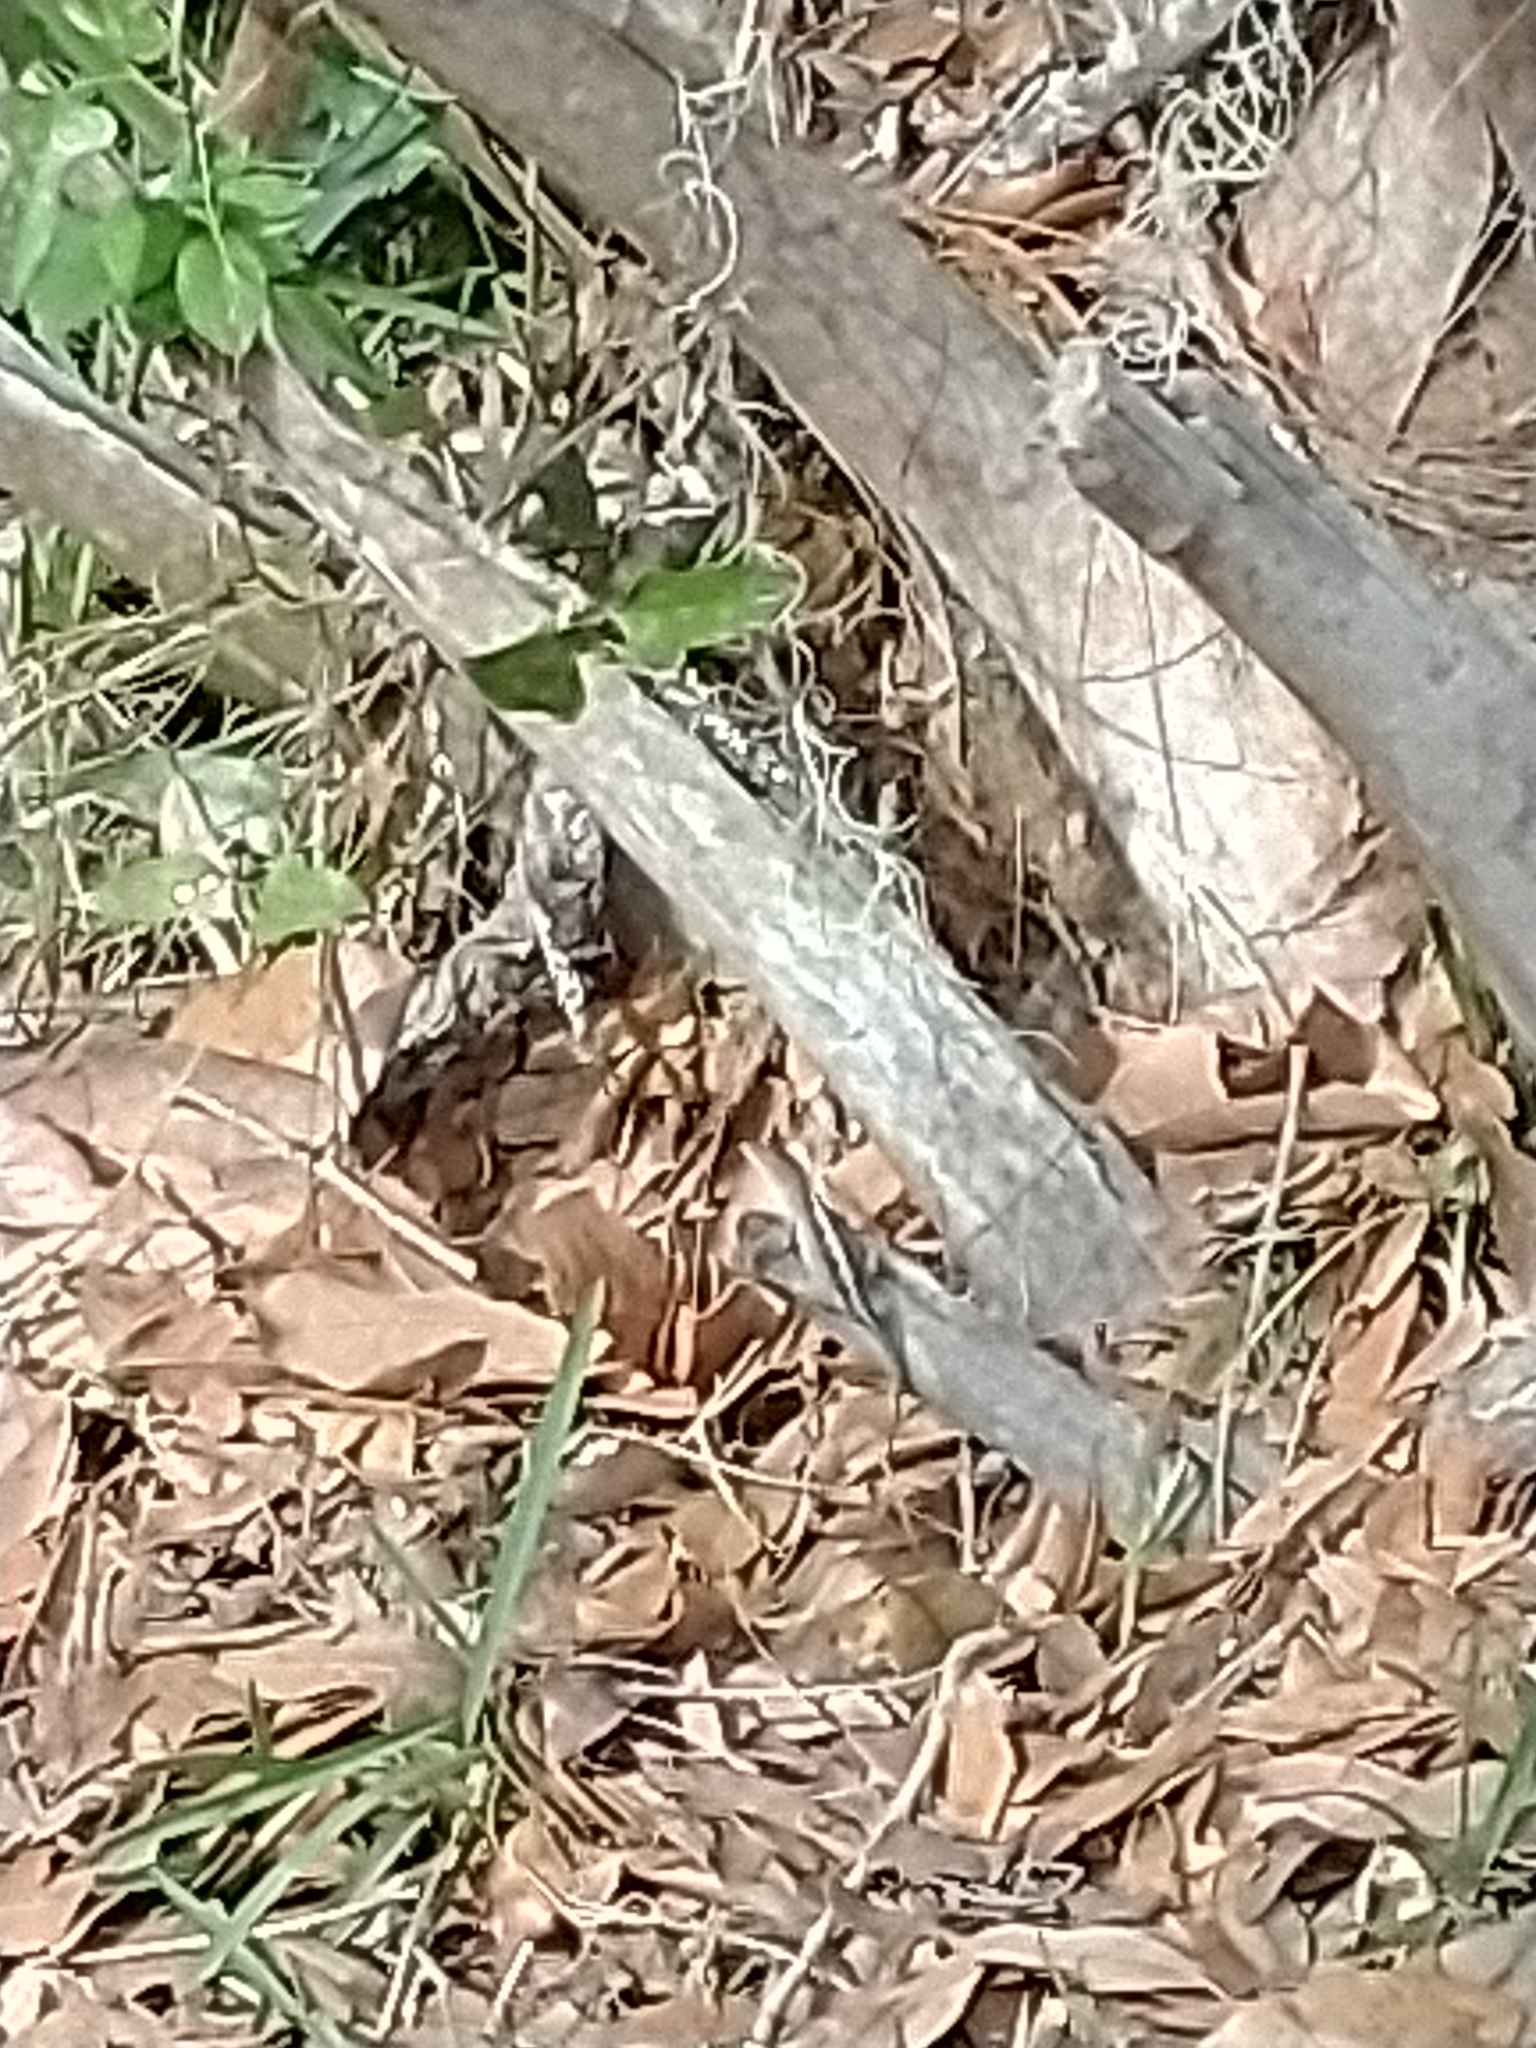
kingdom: Animalia
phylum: Chordata
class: Squamata
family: Dactyloidae
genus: Anolis
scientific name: Anolis sagrei
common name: Brown anole
